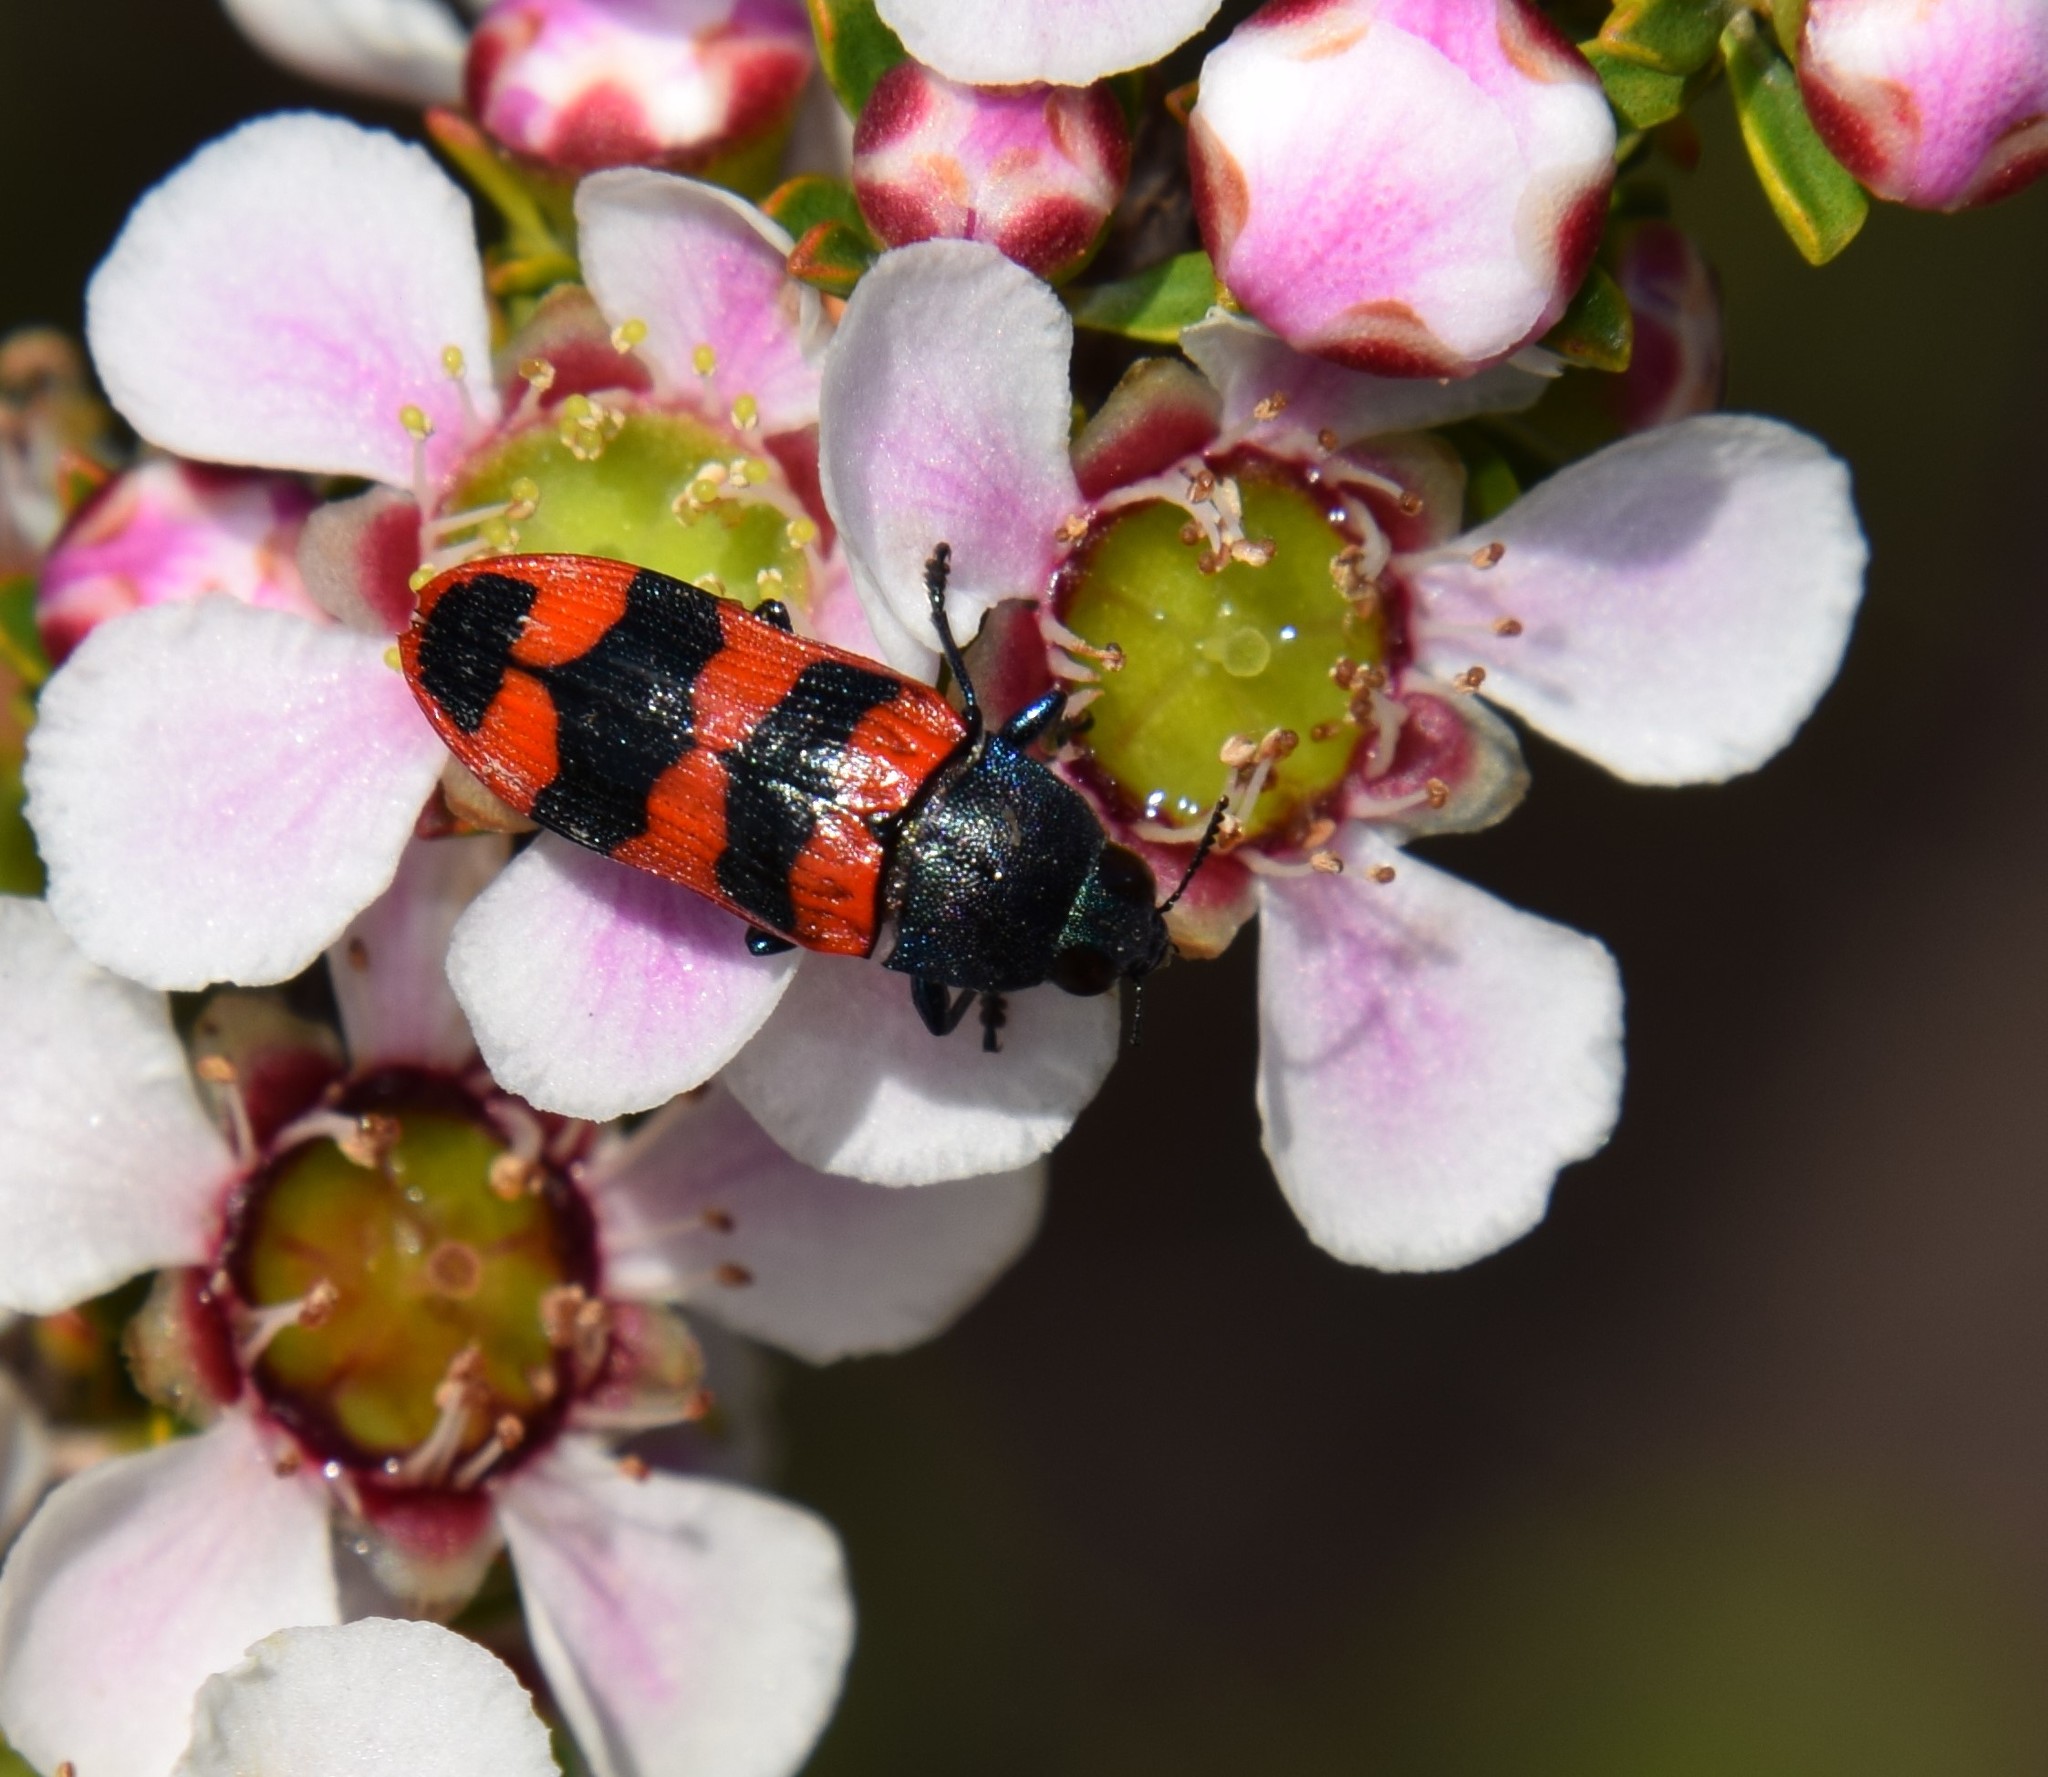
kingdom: Animalia
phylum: Arthropoda
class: Insecta
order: Coleoptera
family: Buprestidae
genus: Castiarina
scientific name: Castiarina crenata
